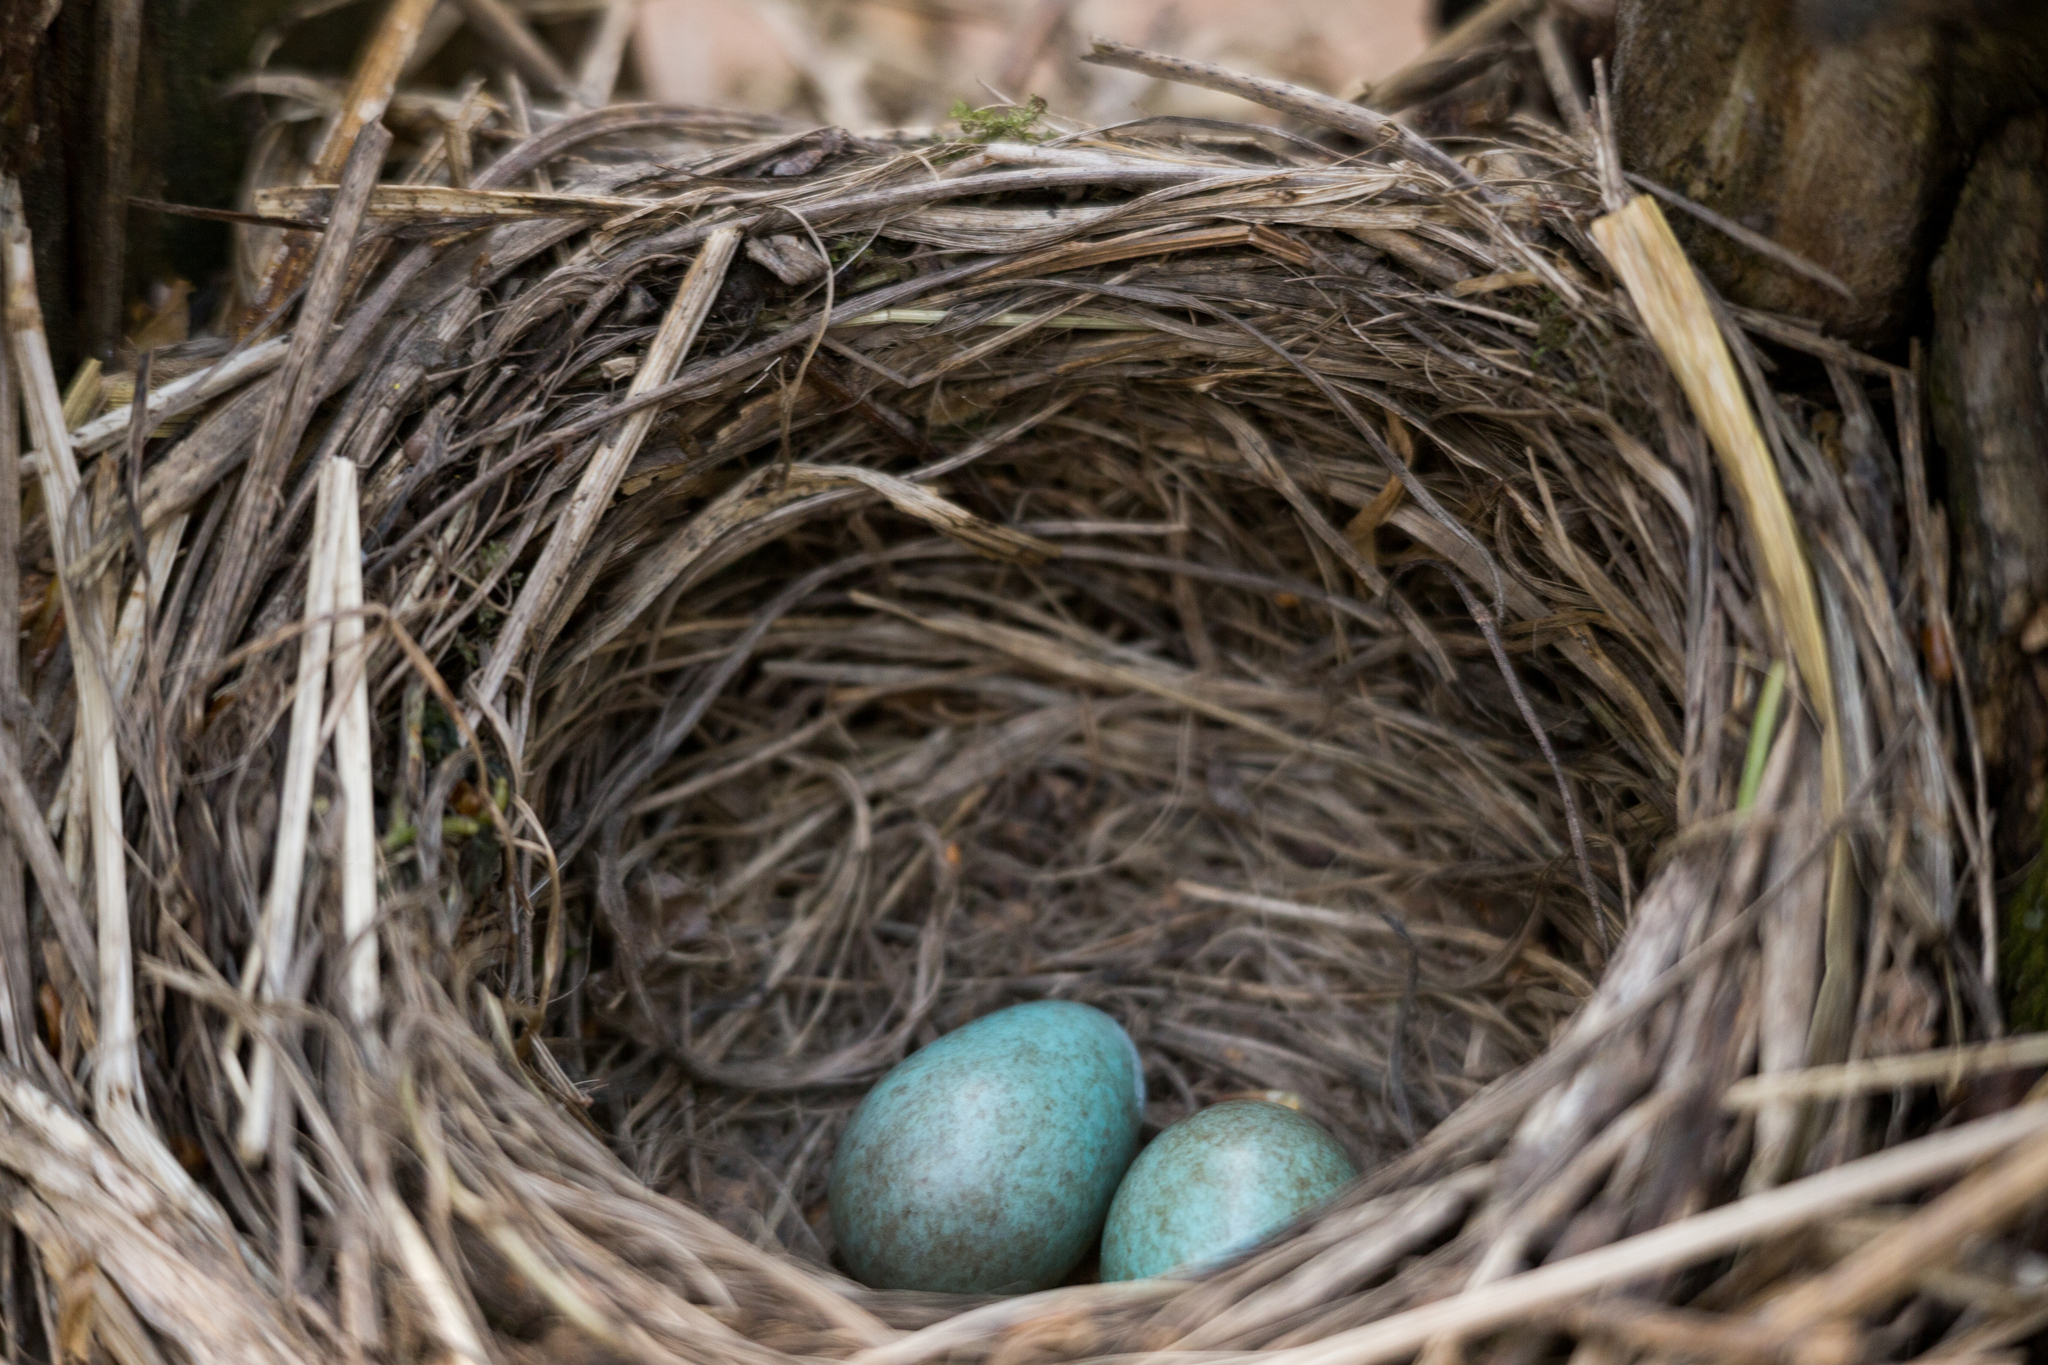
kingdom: Animalia
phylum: Chordata
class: Aves
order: Passeriformes
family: Turdidae
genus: Turdus
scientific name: Turdus iliacus
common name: Redwing
